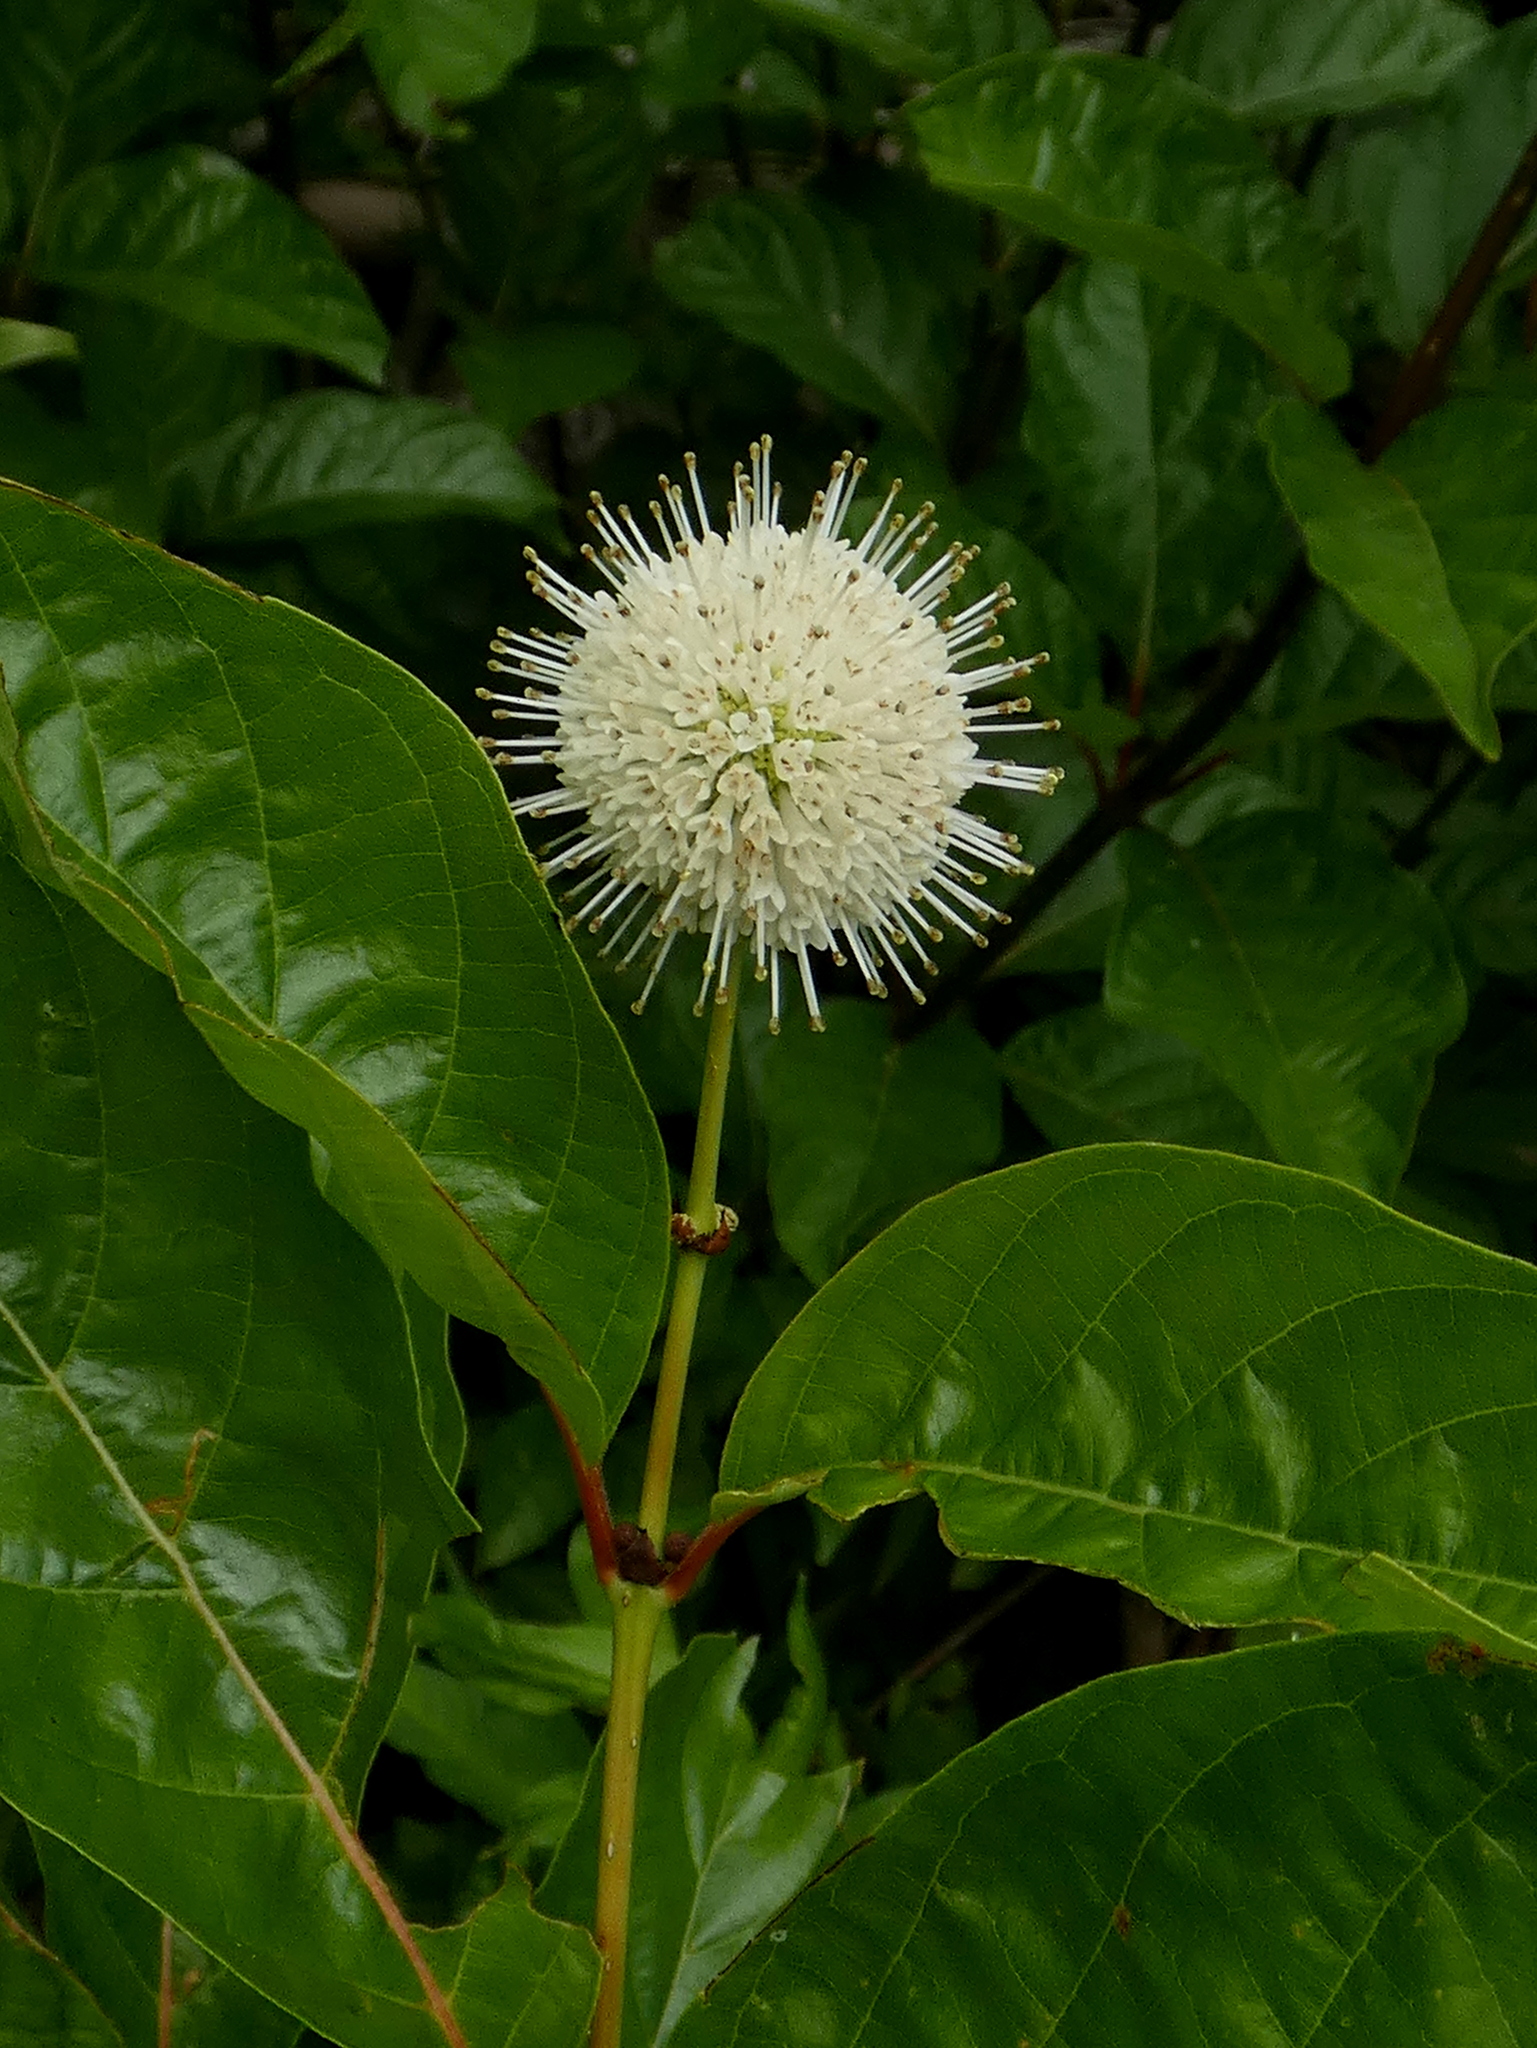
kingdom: Plantae
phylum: Tracheophyta
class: Magnoliopsida
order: Gentianales
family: Rubiaceae
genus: Cephalanthus
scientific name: Cephalanthus occidentalis
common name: Button-willow
